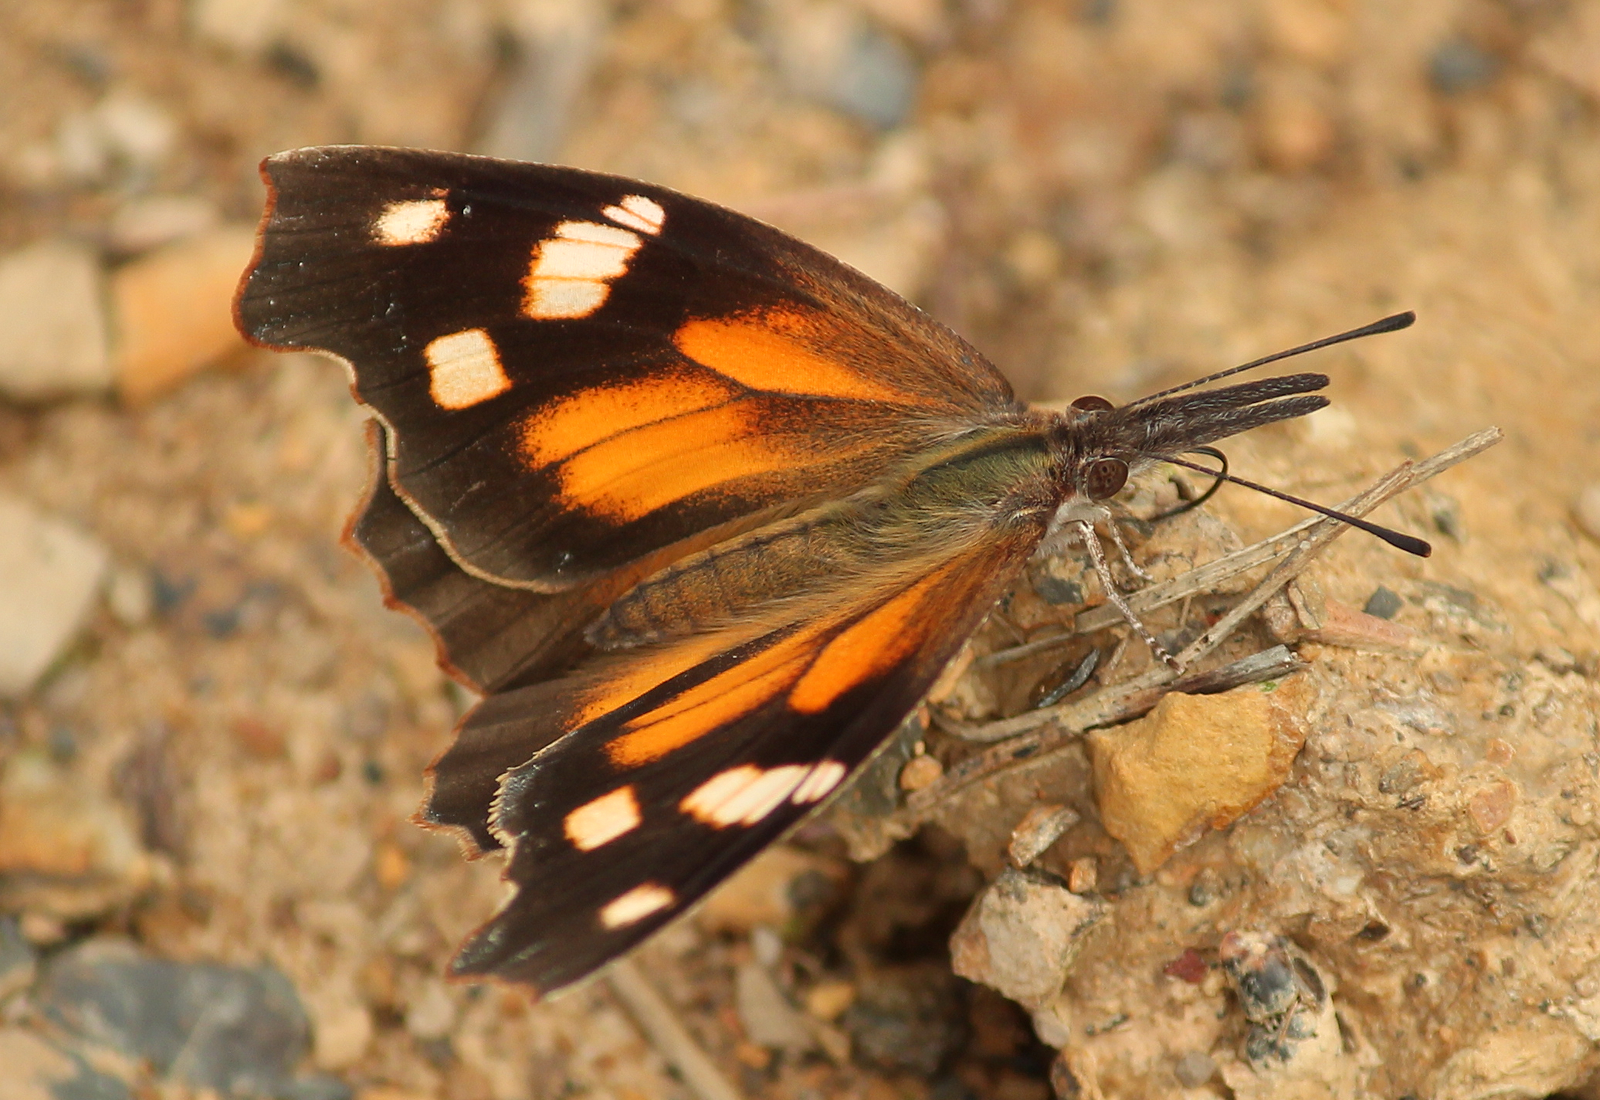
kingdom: Animalia
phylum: Arthropoda
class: Insecta
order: Lepidoptera
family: Nymphalidae
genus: Libytheana
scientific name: Libytheana carinenta
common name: American snout
